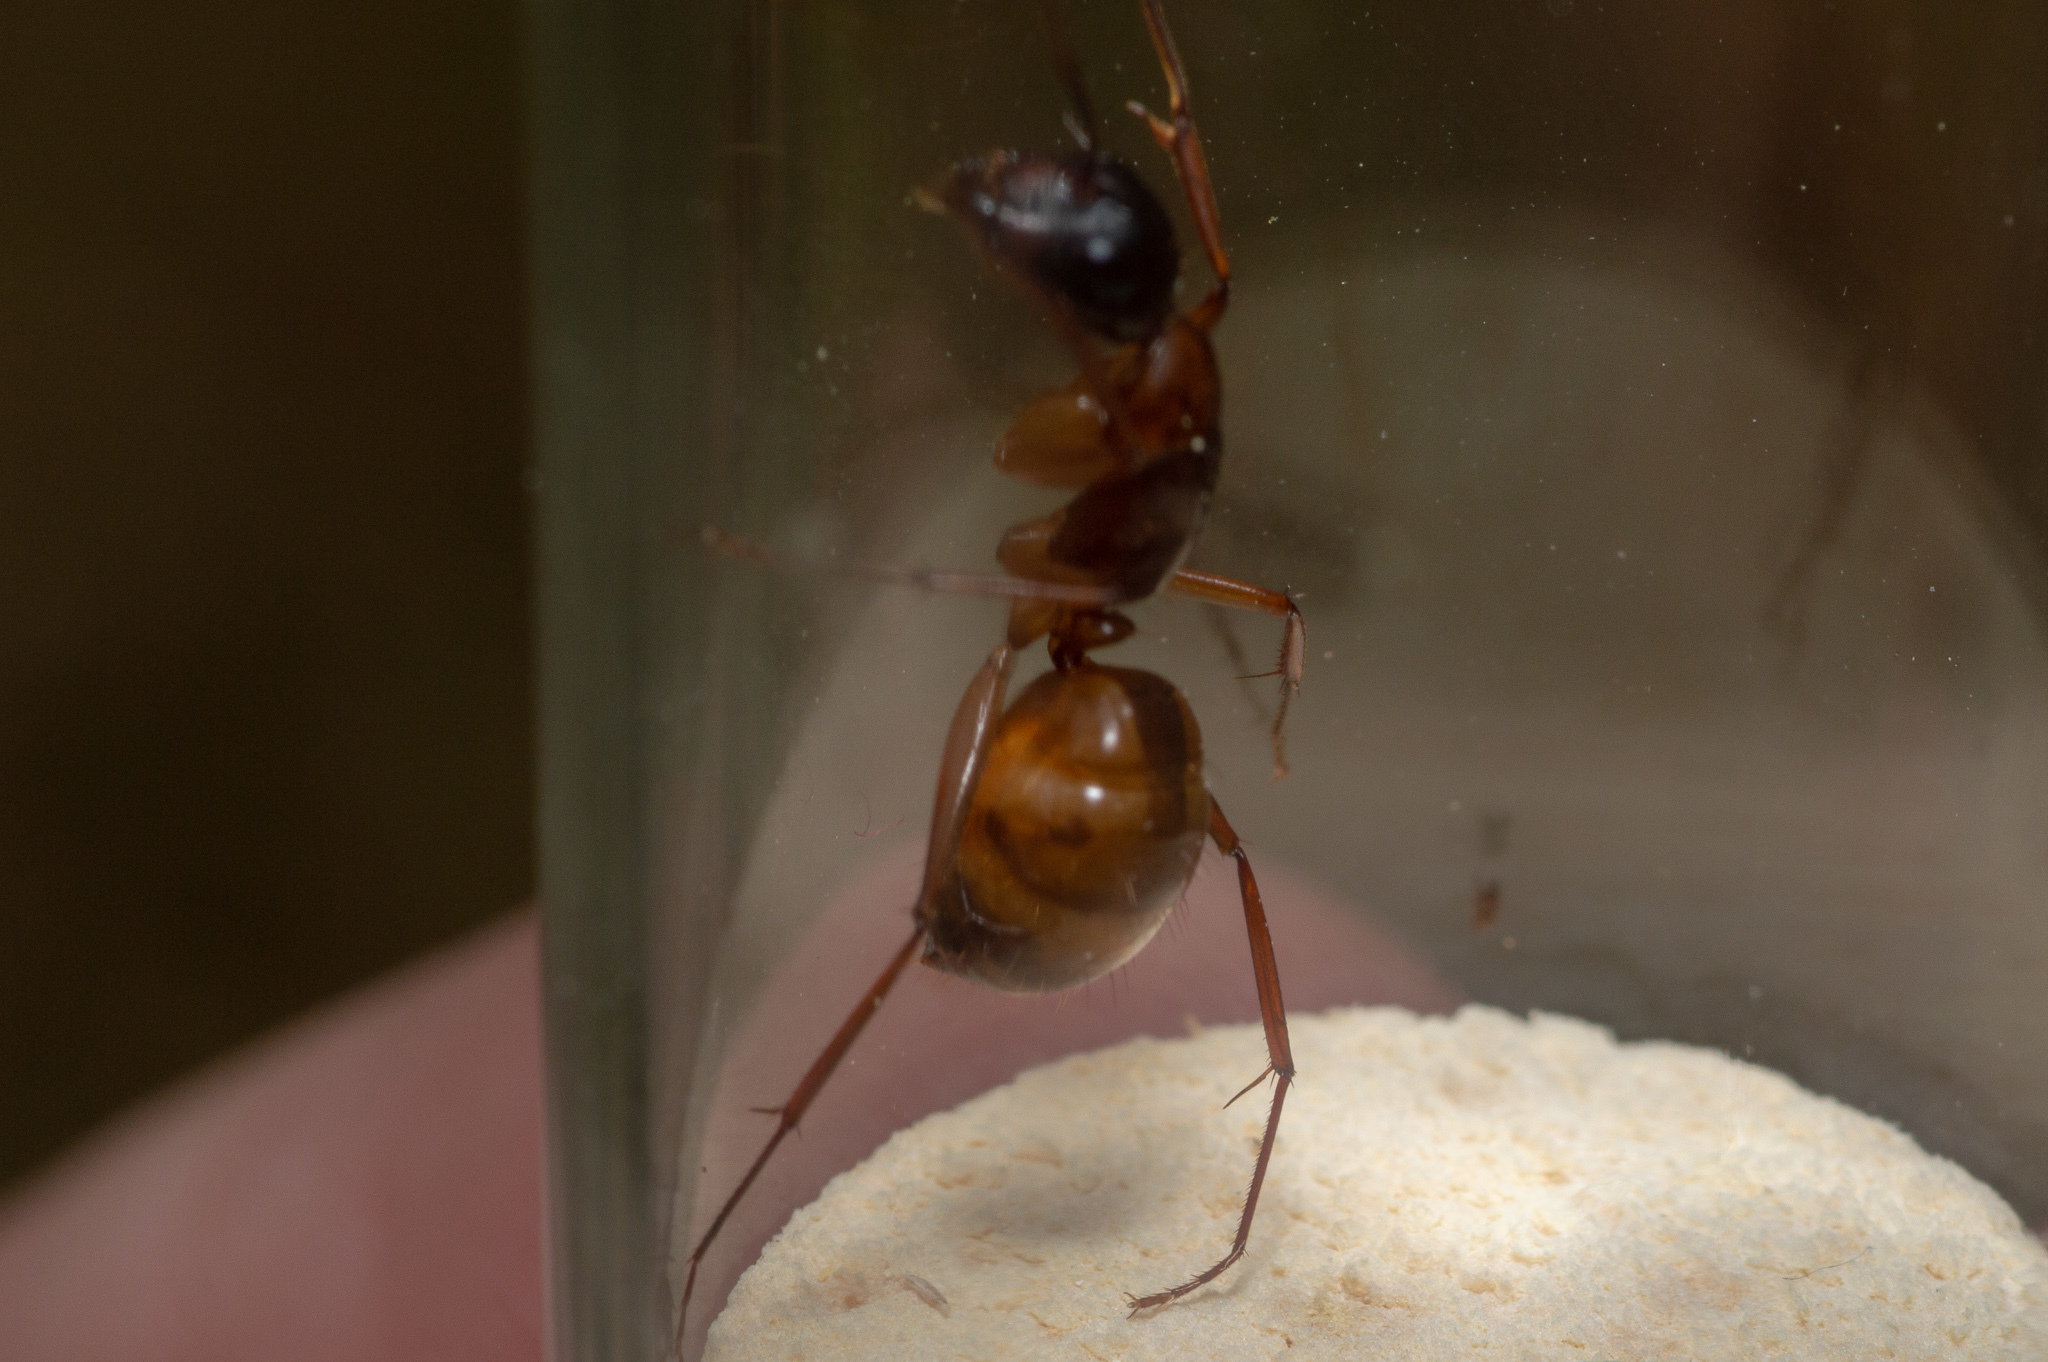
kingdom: Animalia
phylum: Arthropoda
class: Insecta
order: Hymenoptera
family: Formicidae
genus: Camponotus
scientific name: Camponotus americanus
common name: American carpenter ant
